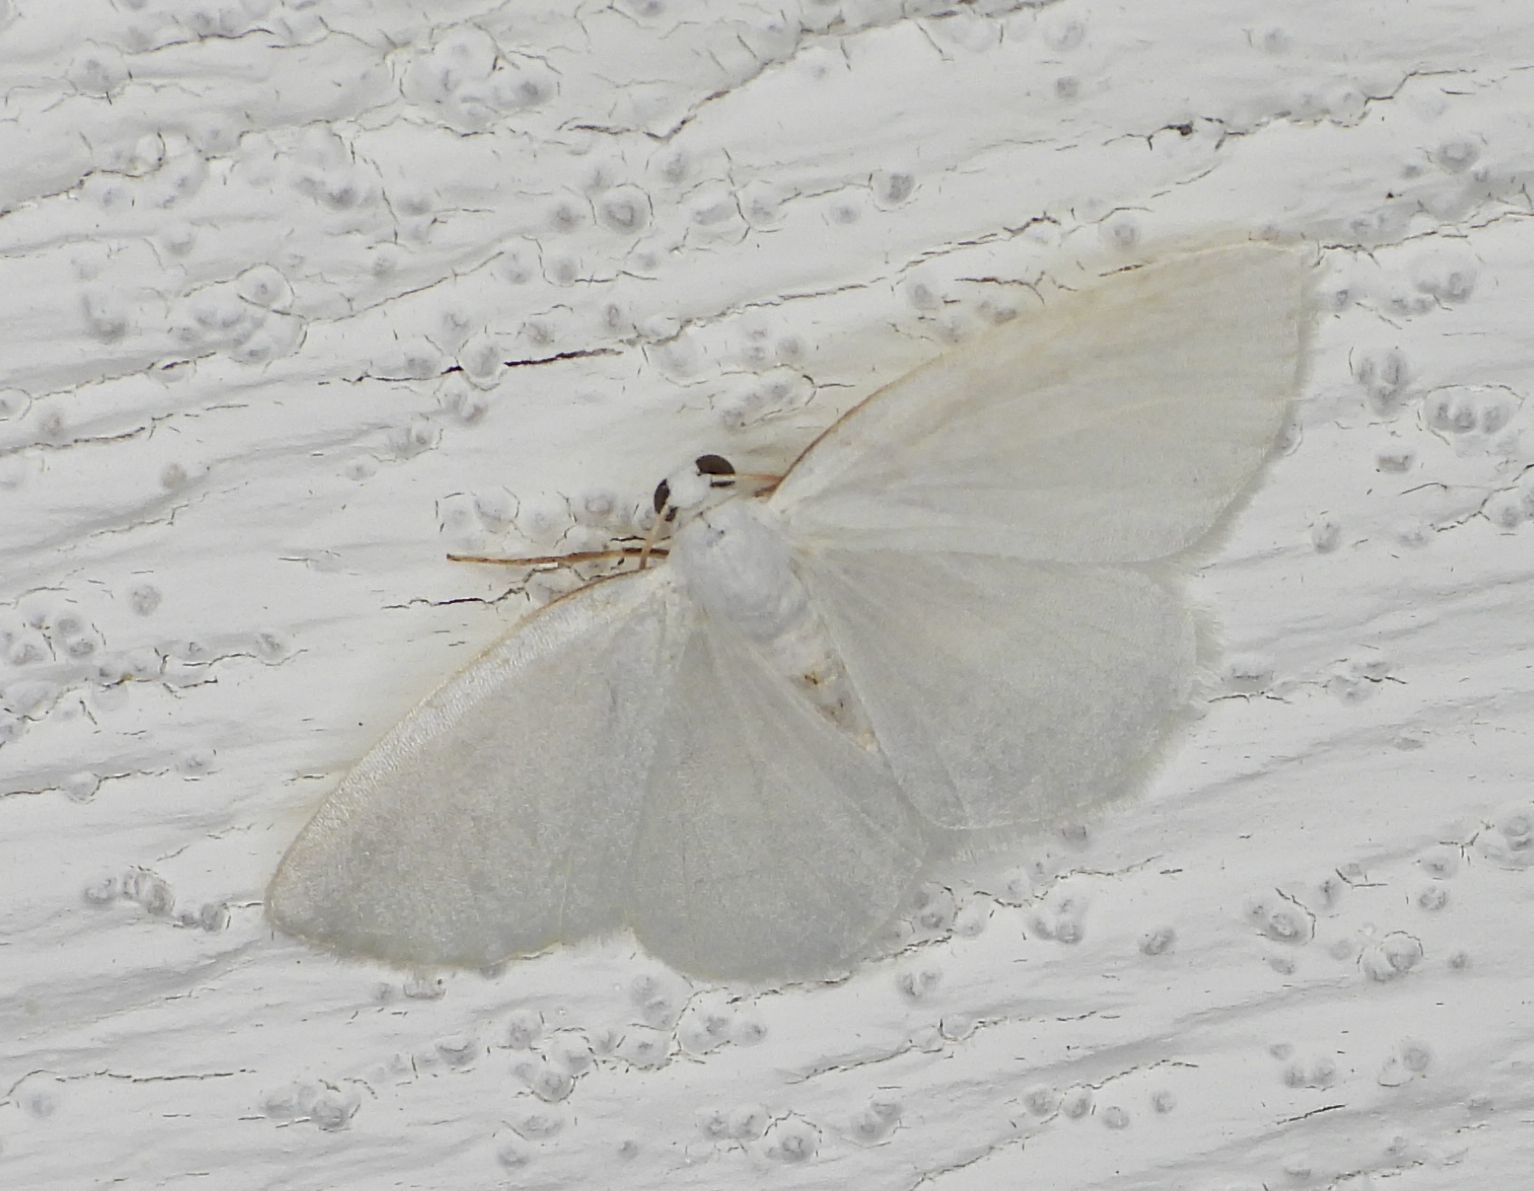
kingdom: Animalia
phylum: Arthropoda
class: Insecta
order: Lepidoptera
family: Geometridae
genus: Lomographa
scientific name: Lomographa vestaliata
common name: White spring moth
